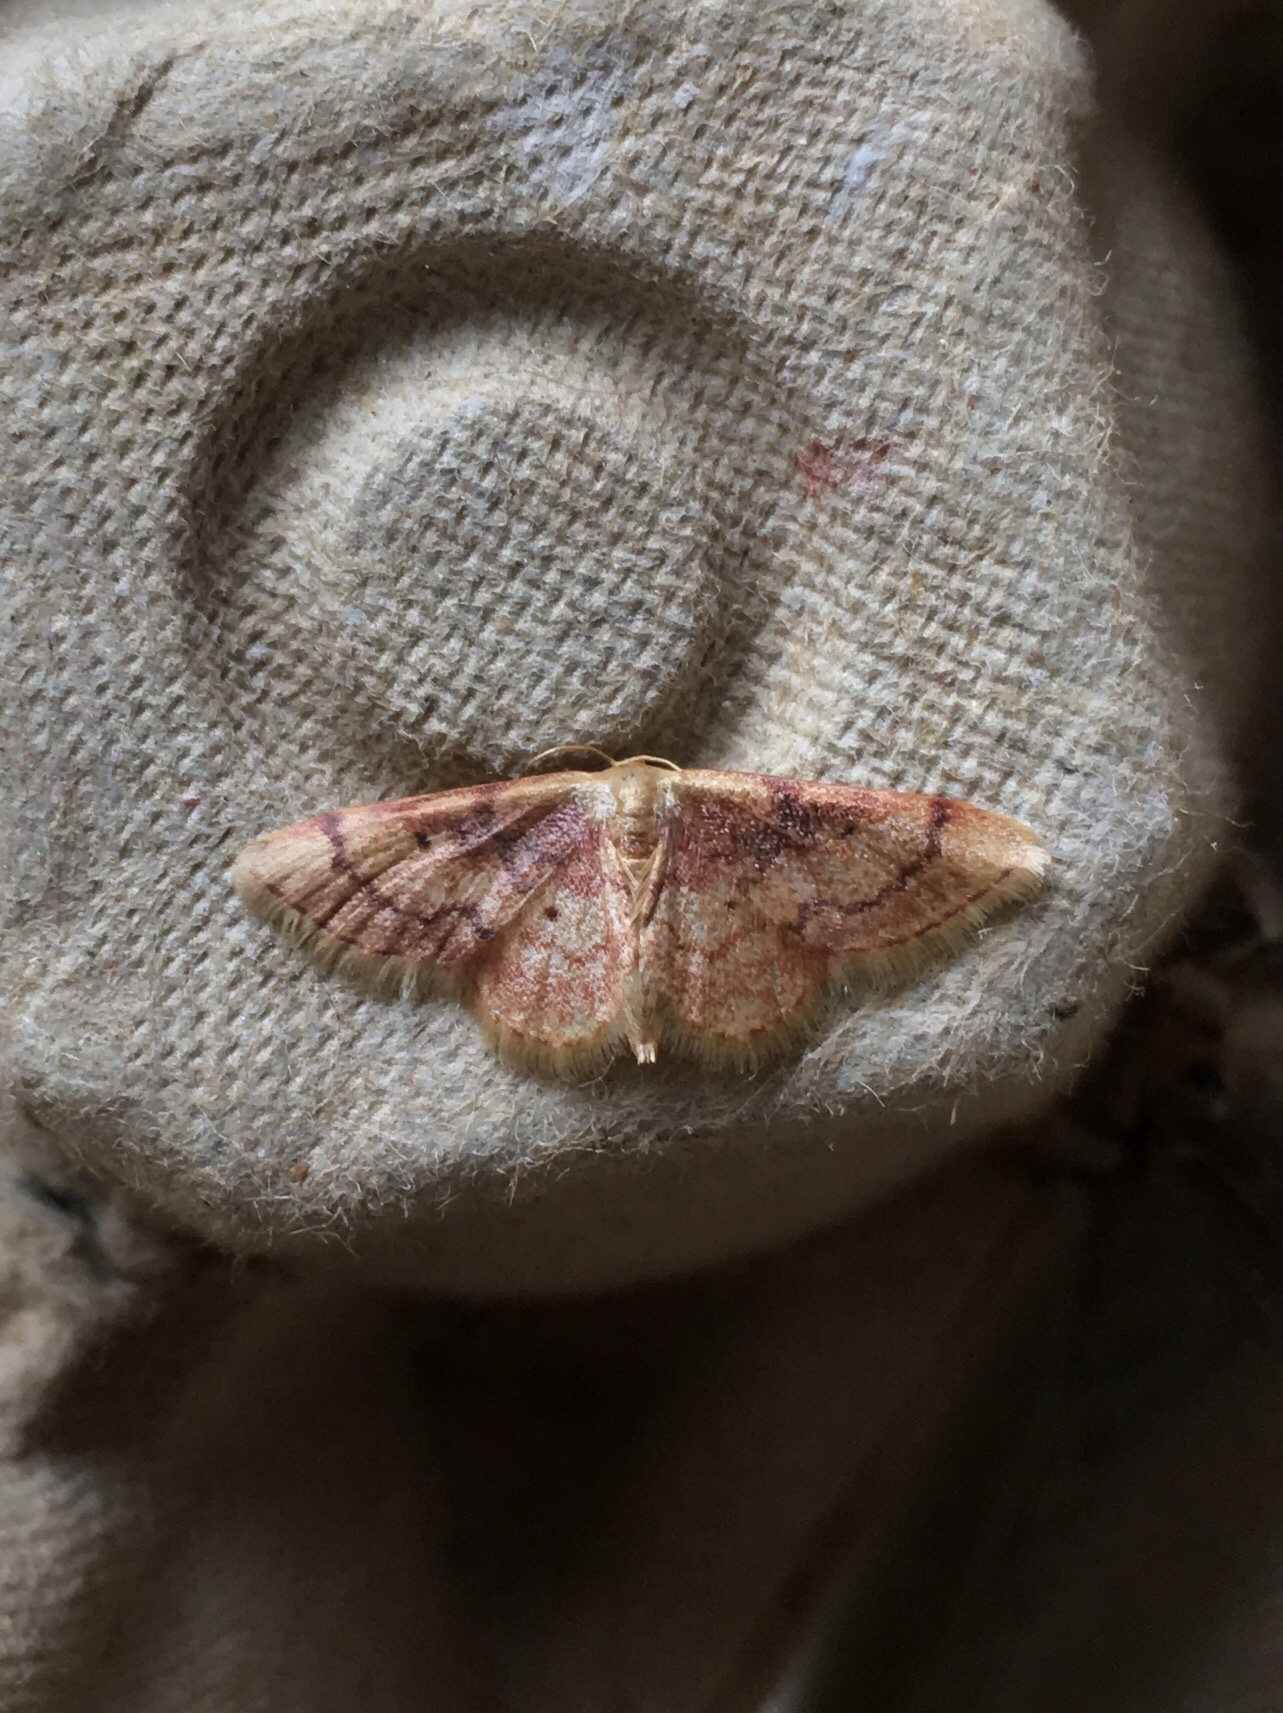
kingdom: Animalia
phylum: Arthropoda
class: Insecta
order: Lepidoptera
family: Geometridae
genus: Idaea
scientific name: Idaea demissaria
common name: Red-bordered wave
